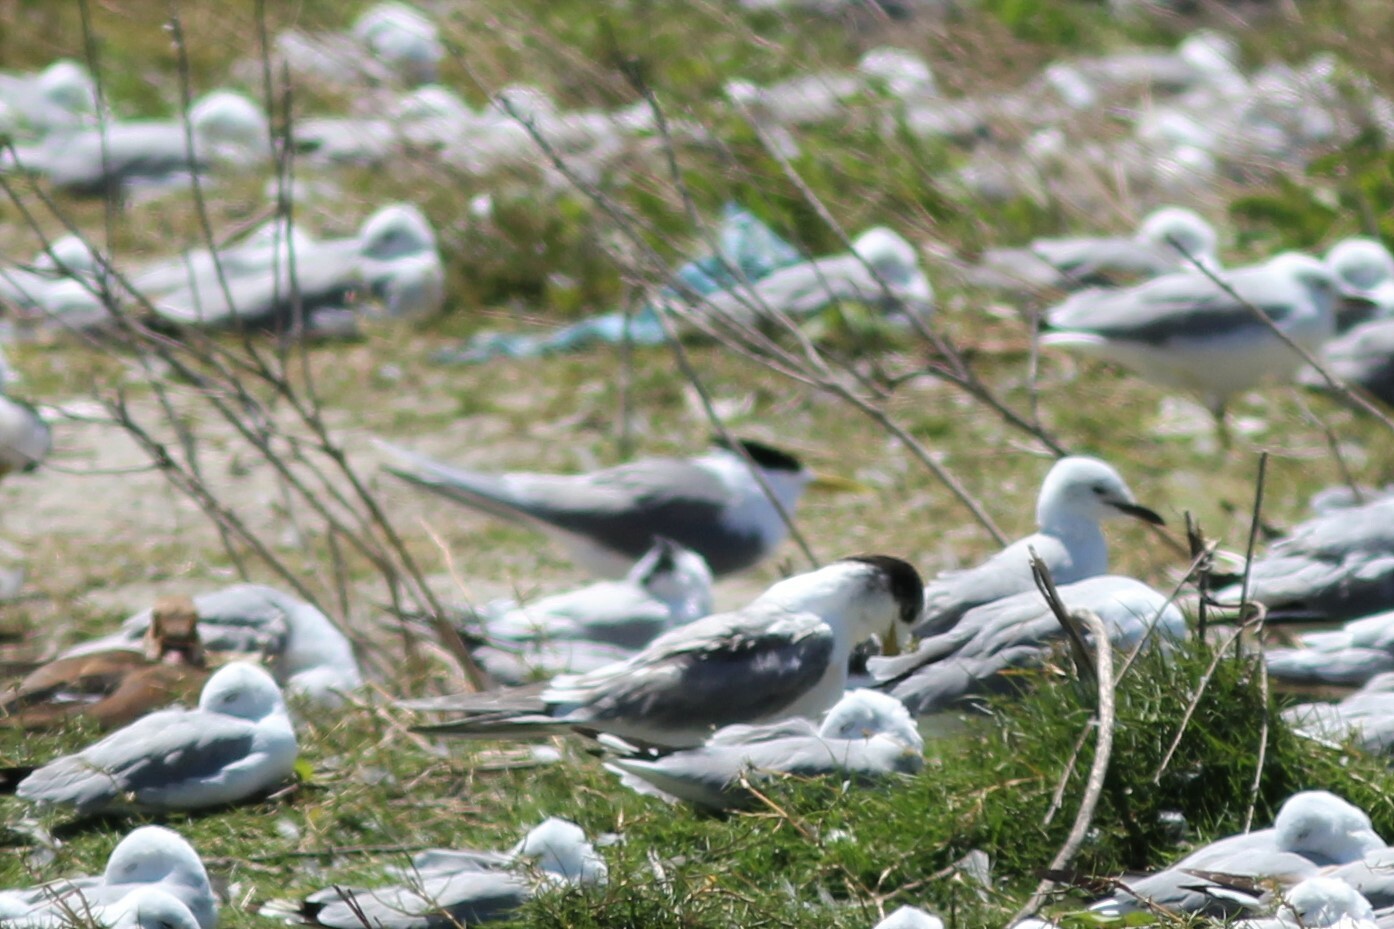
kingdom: Animalia
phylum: Chordata
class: Aves
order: Charadriiformes
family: Laridae
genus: Thalasseus
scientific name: Thalasseus bergii
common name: Greater crested tern
